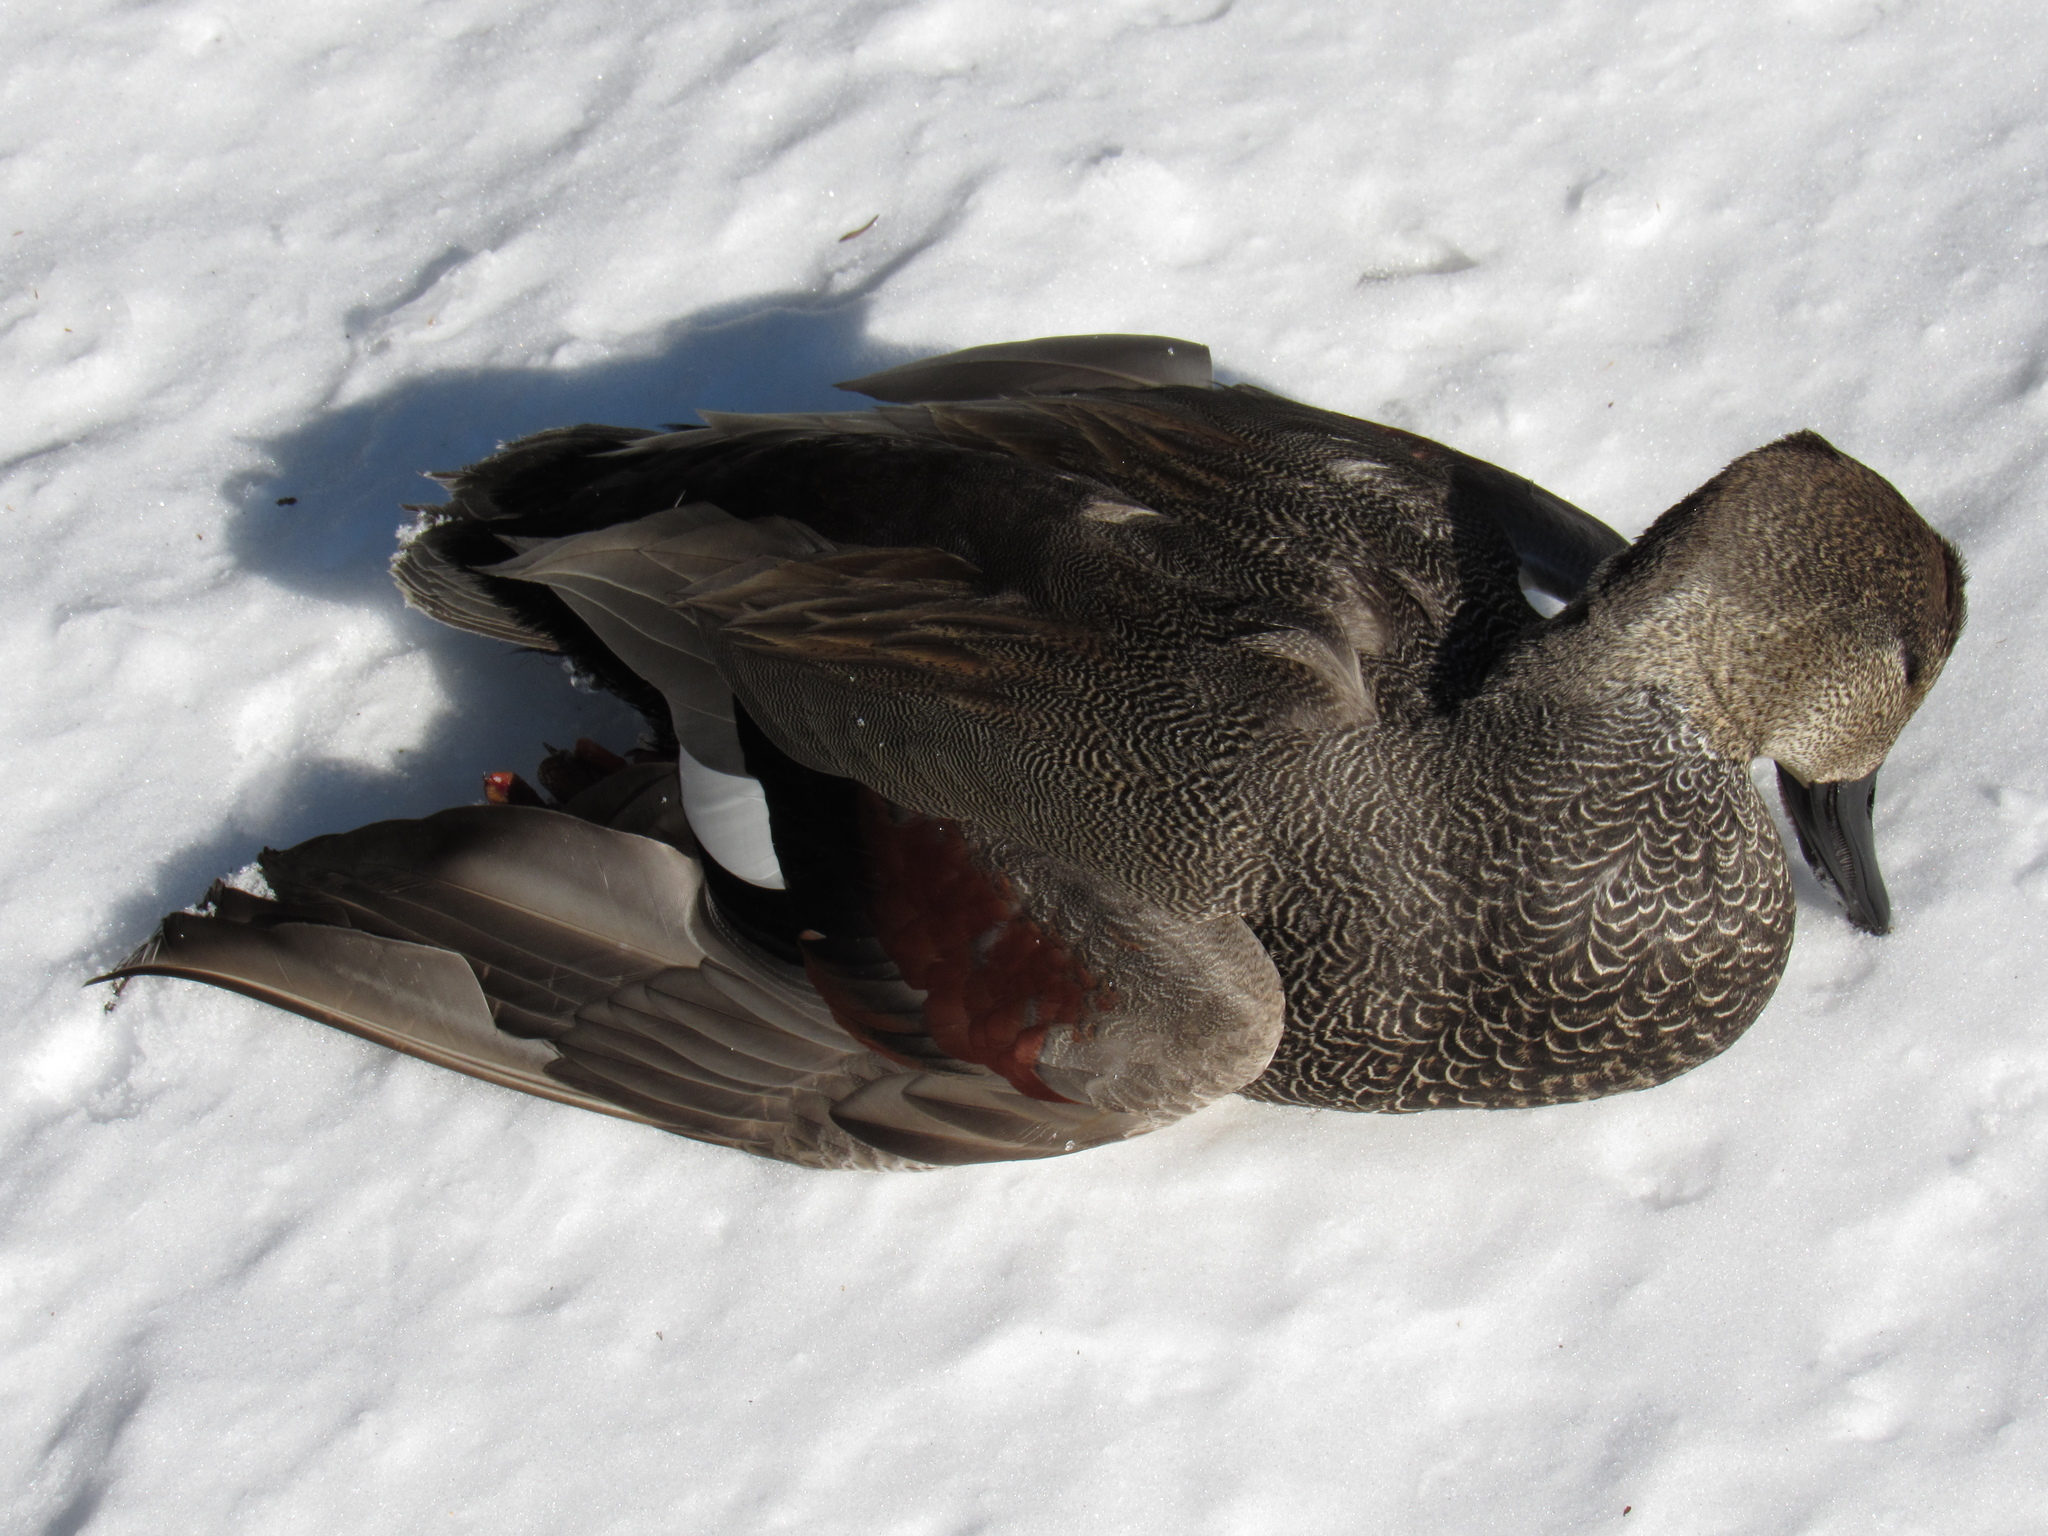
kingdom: Animalia
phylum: Chordata
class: Aves
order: Anseriformes
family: Anatidae
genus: Mareca
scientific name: Mareca strepera
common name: Gadwall
